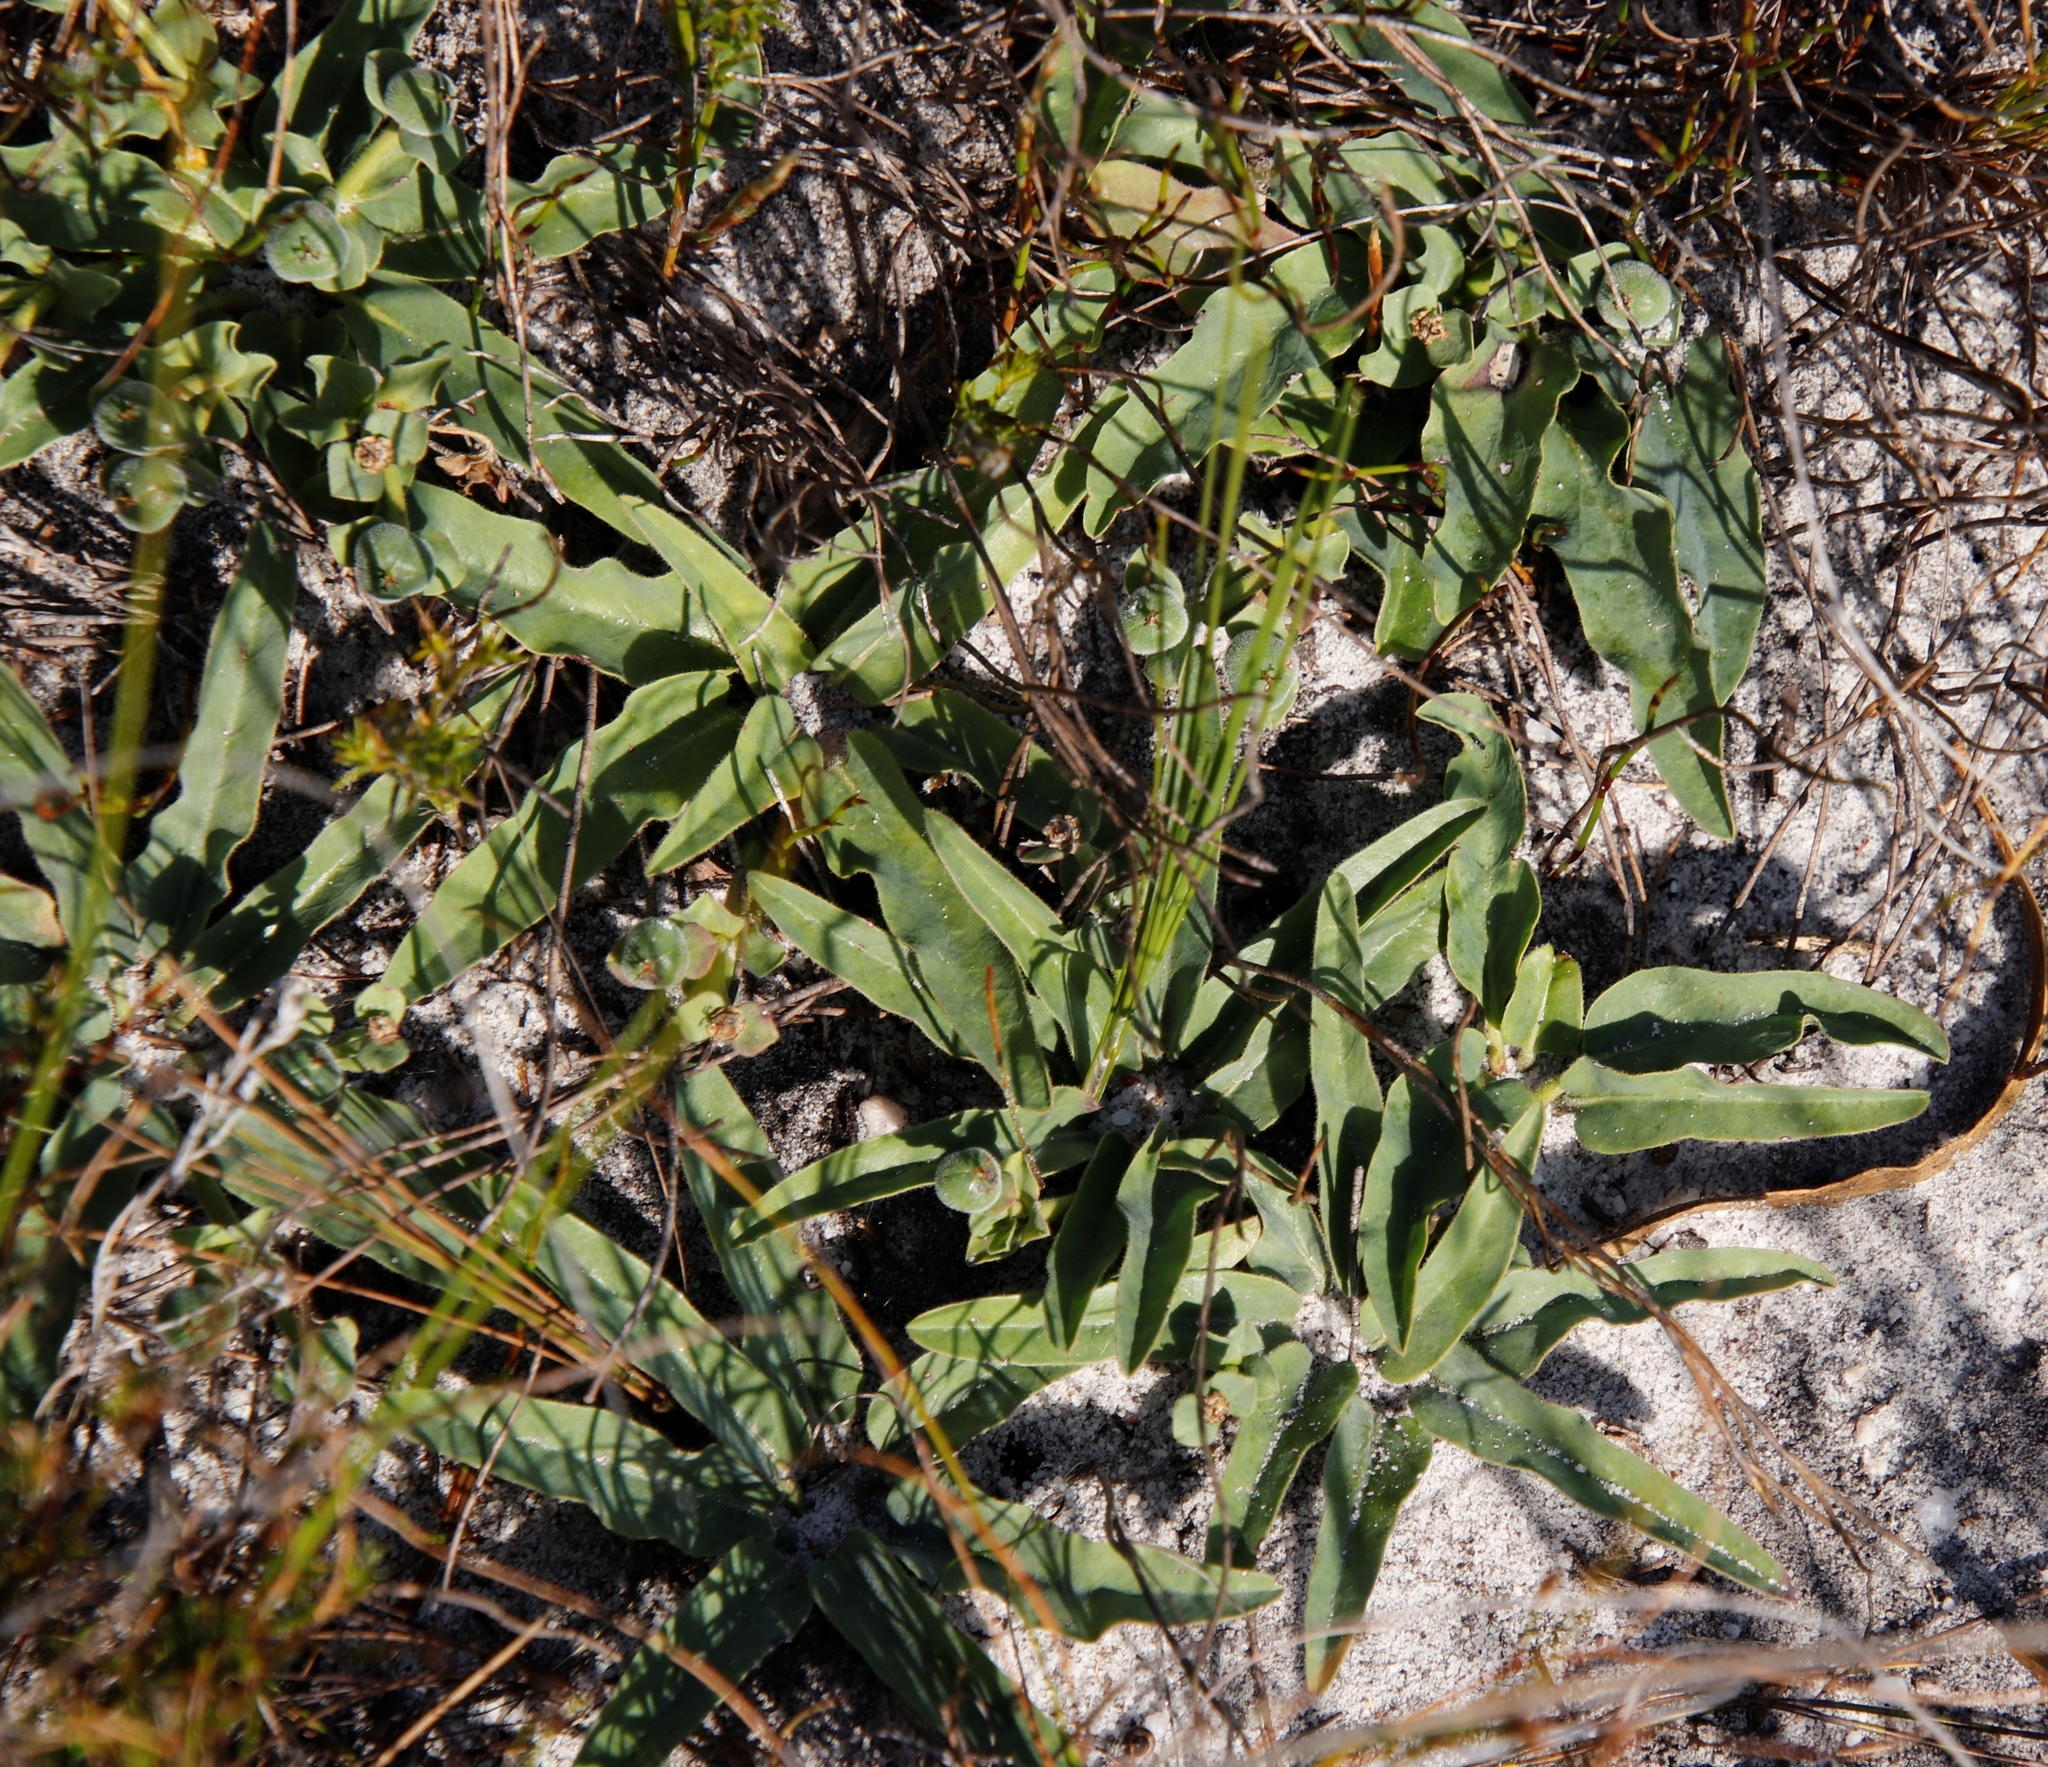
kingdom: Plantae
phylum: Tracheophyta
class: Magnoliopsida
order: Malpighiales
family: Euphorbiaceae
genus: Euphorbia
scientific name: Euphorbia tuberosa
